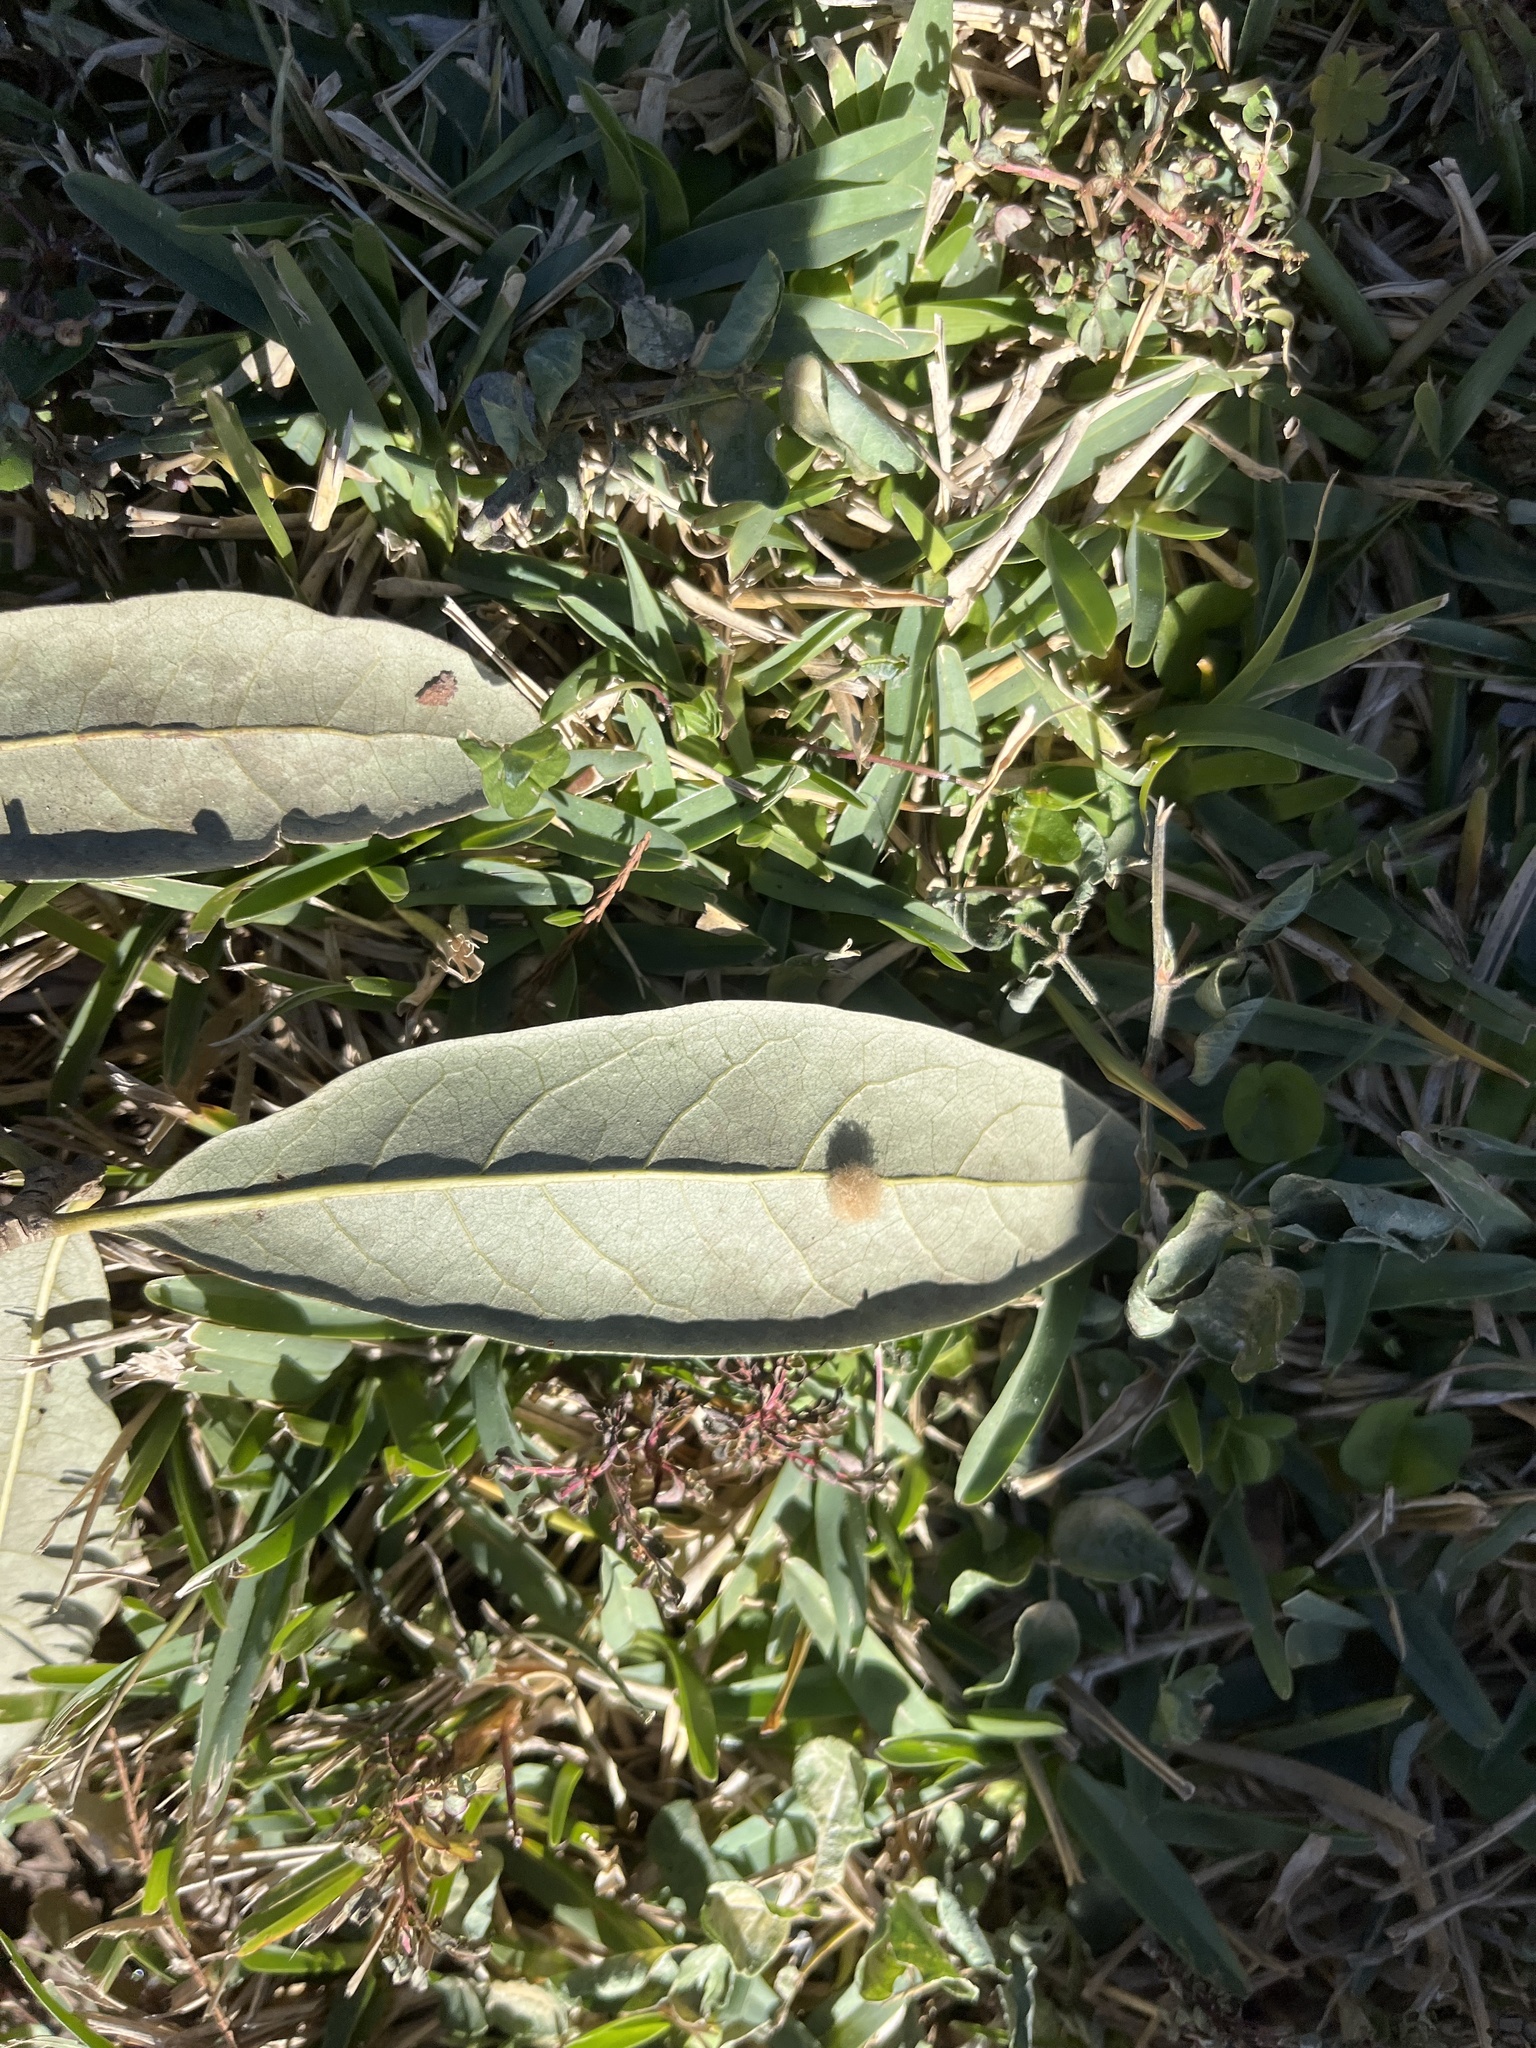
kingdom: Animalia
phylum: Arthropoda
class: Insecta
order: Hymenoptera
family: Cynipidae
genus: Andricus
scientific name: Andricus Druon quercuslanigerum
